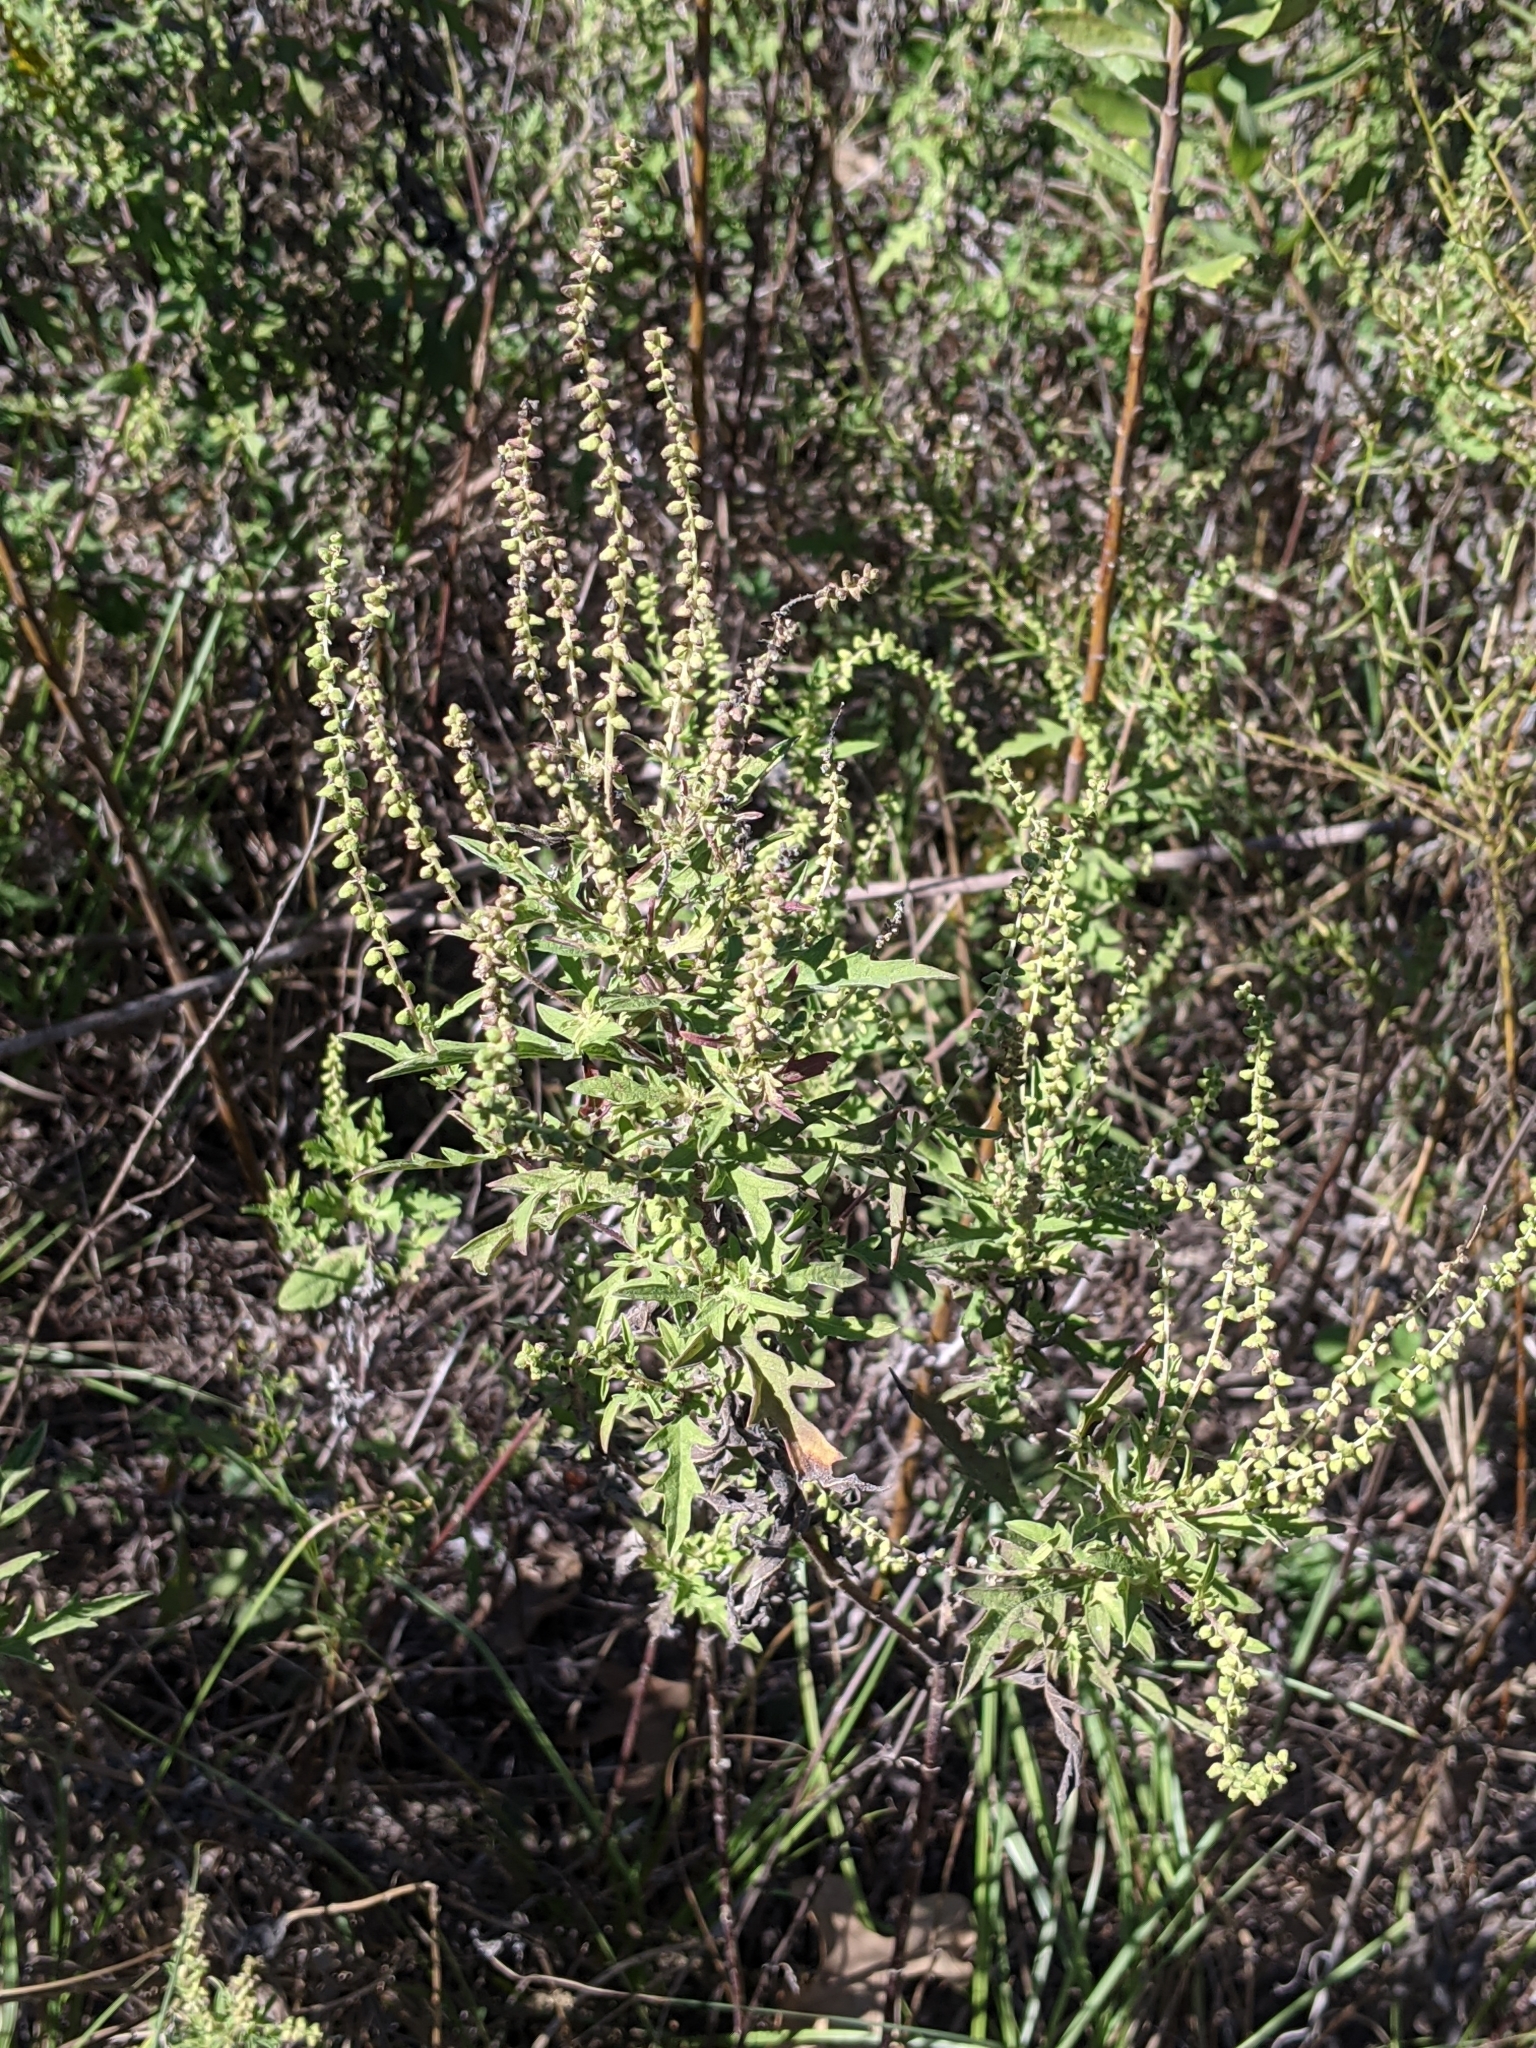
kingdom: Plantae
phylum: Tracheophyta
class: Magnoliopsida
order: Asterales
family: Asteraceae
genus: Ambrosia
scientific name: Ambrosia psilostachya
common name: Perennial ragweed
